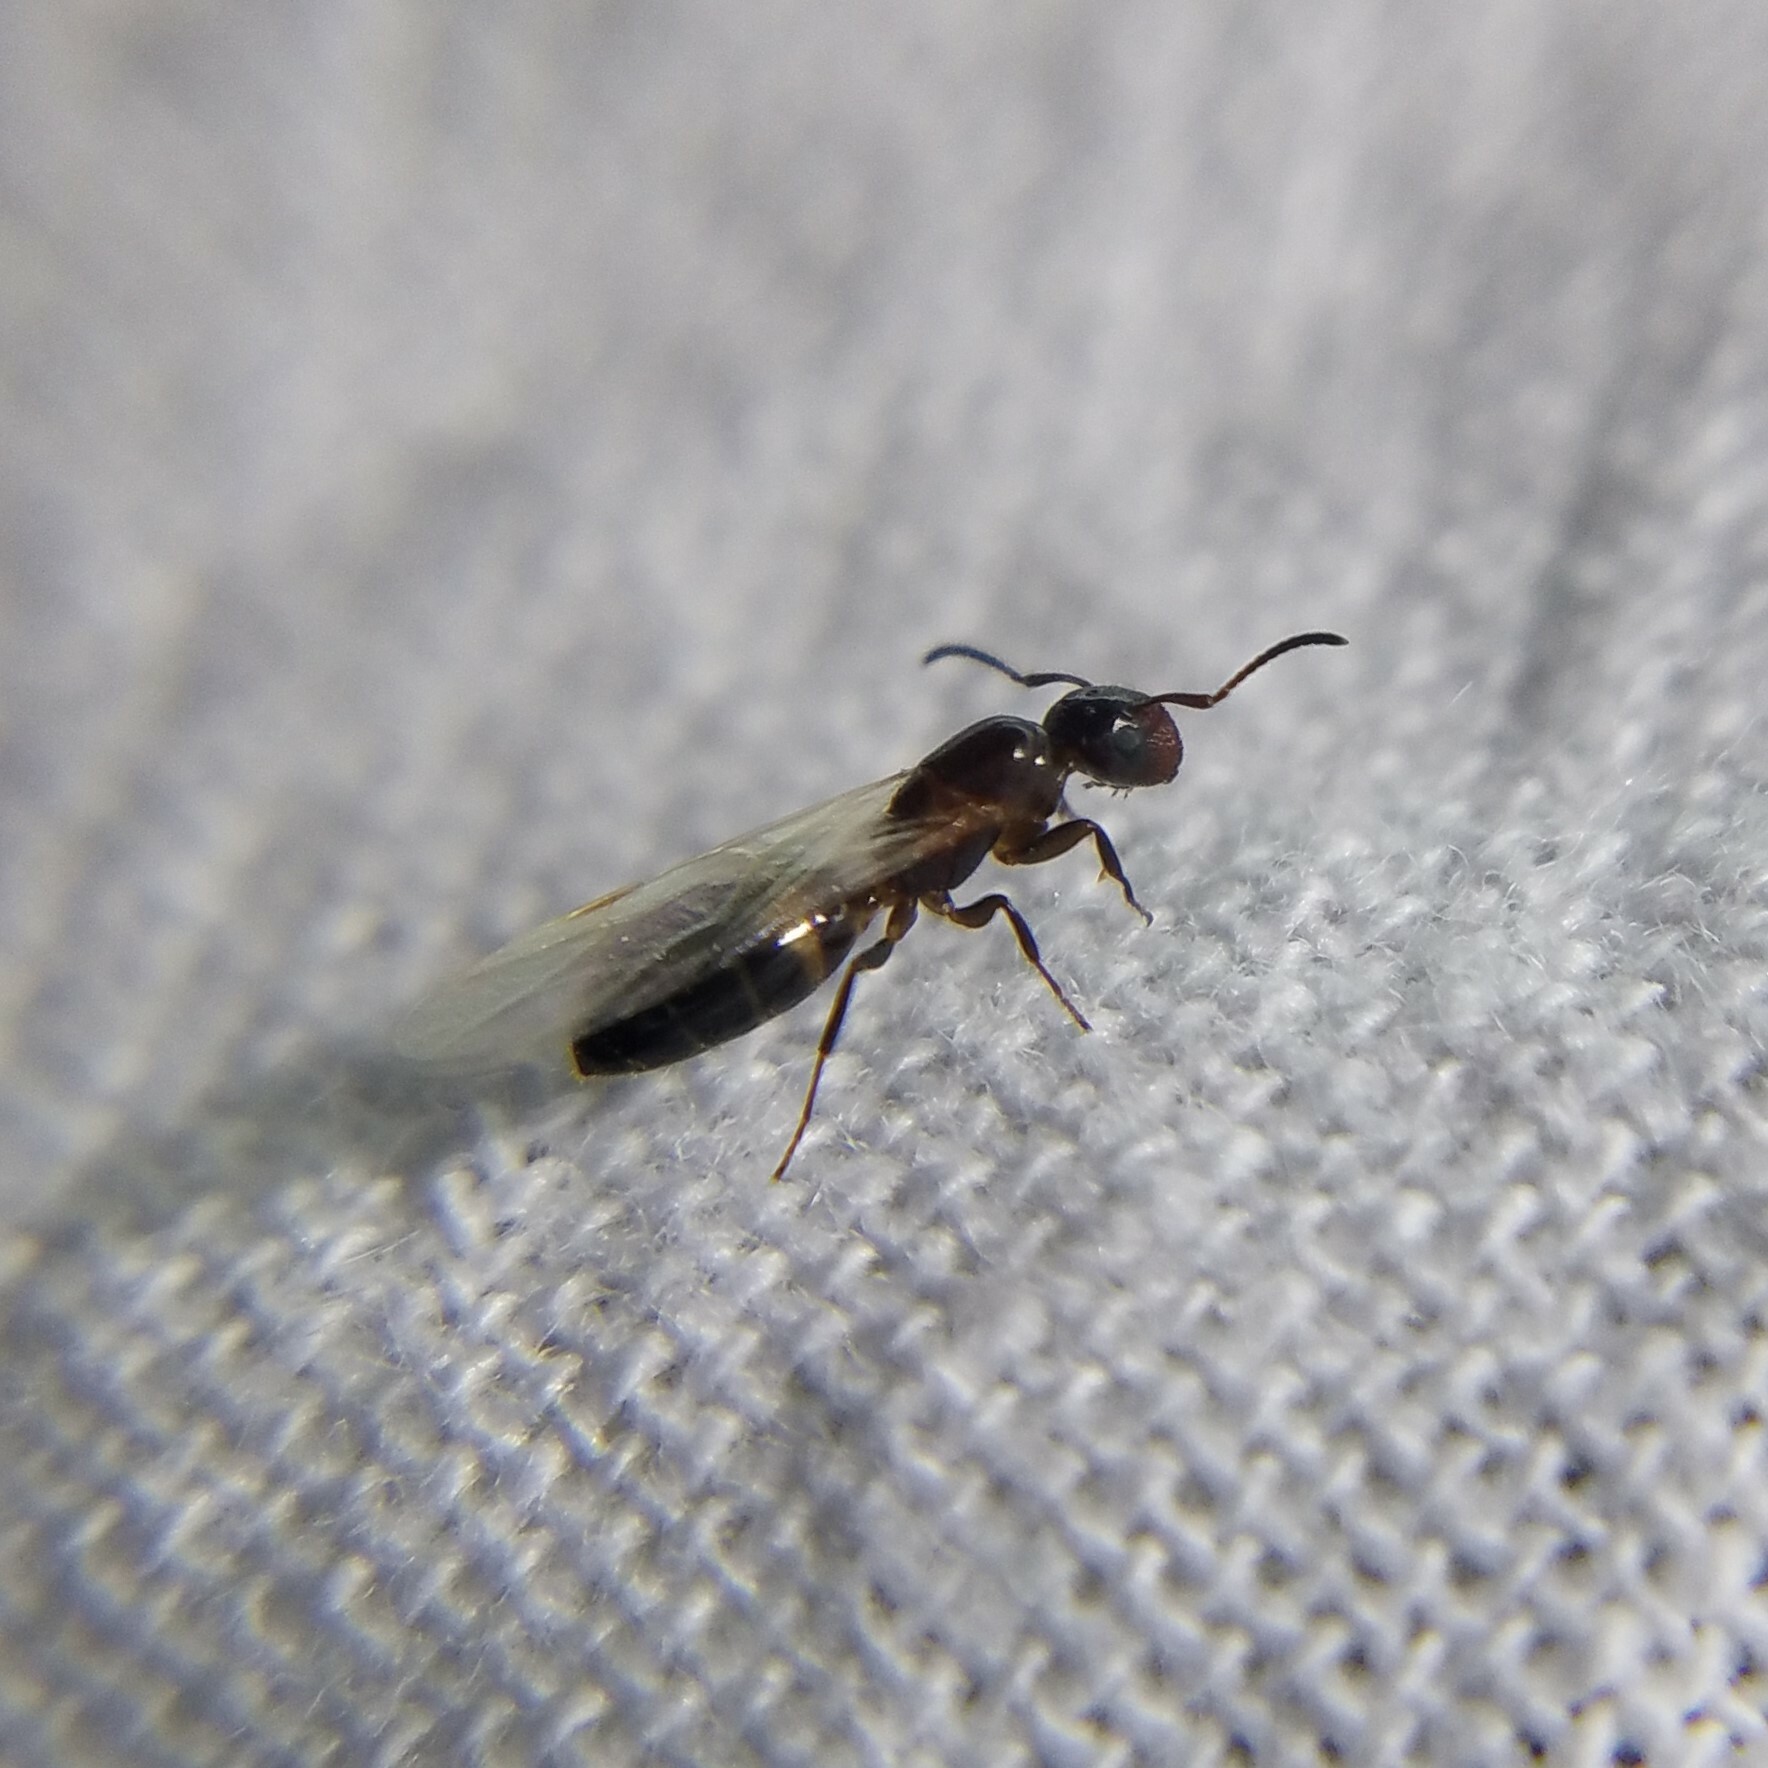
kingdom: Animalia
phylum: Arthropoda
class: Insecta
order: Hymenoptera
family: Formicidae
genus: Colobopsis
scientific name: Colobopsis
